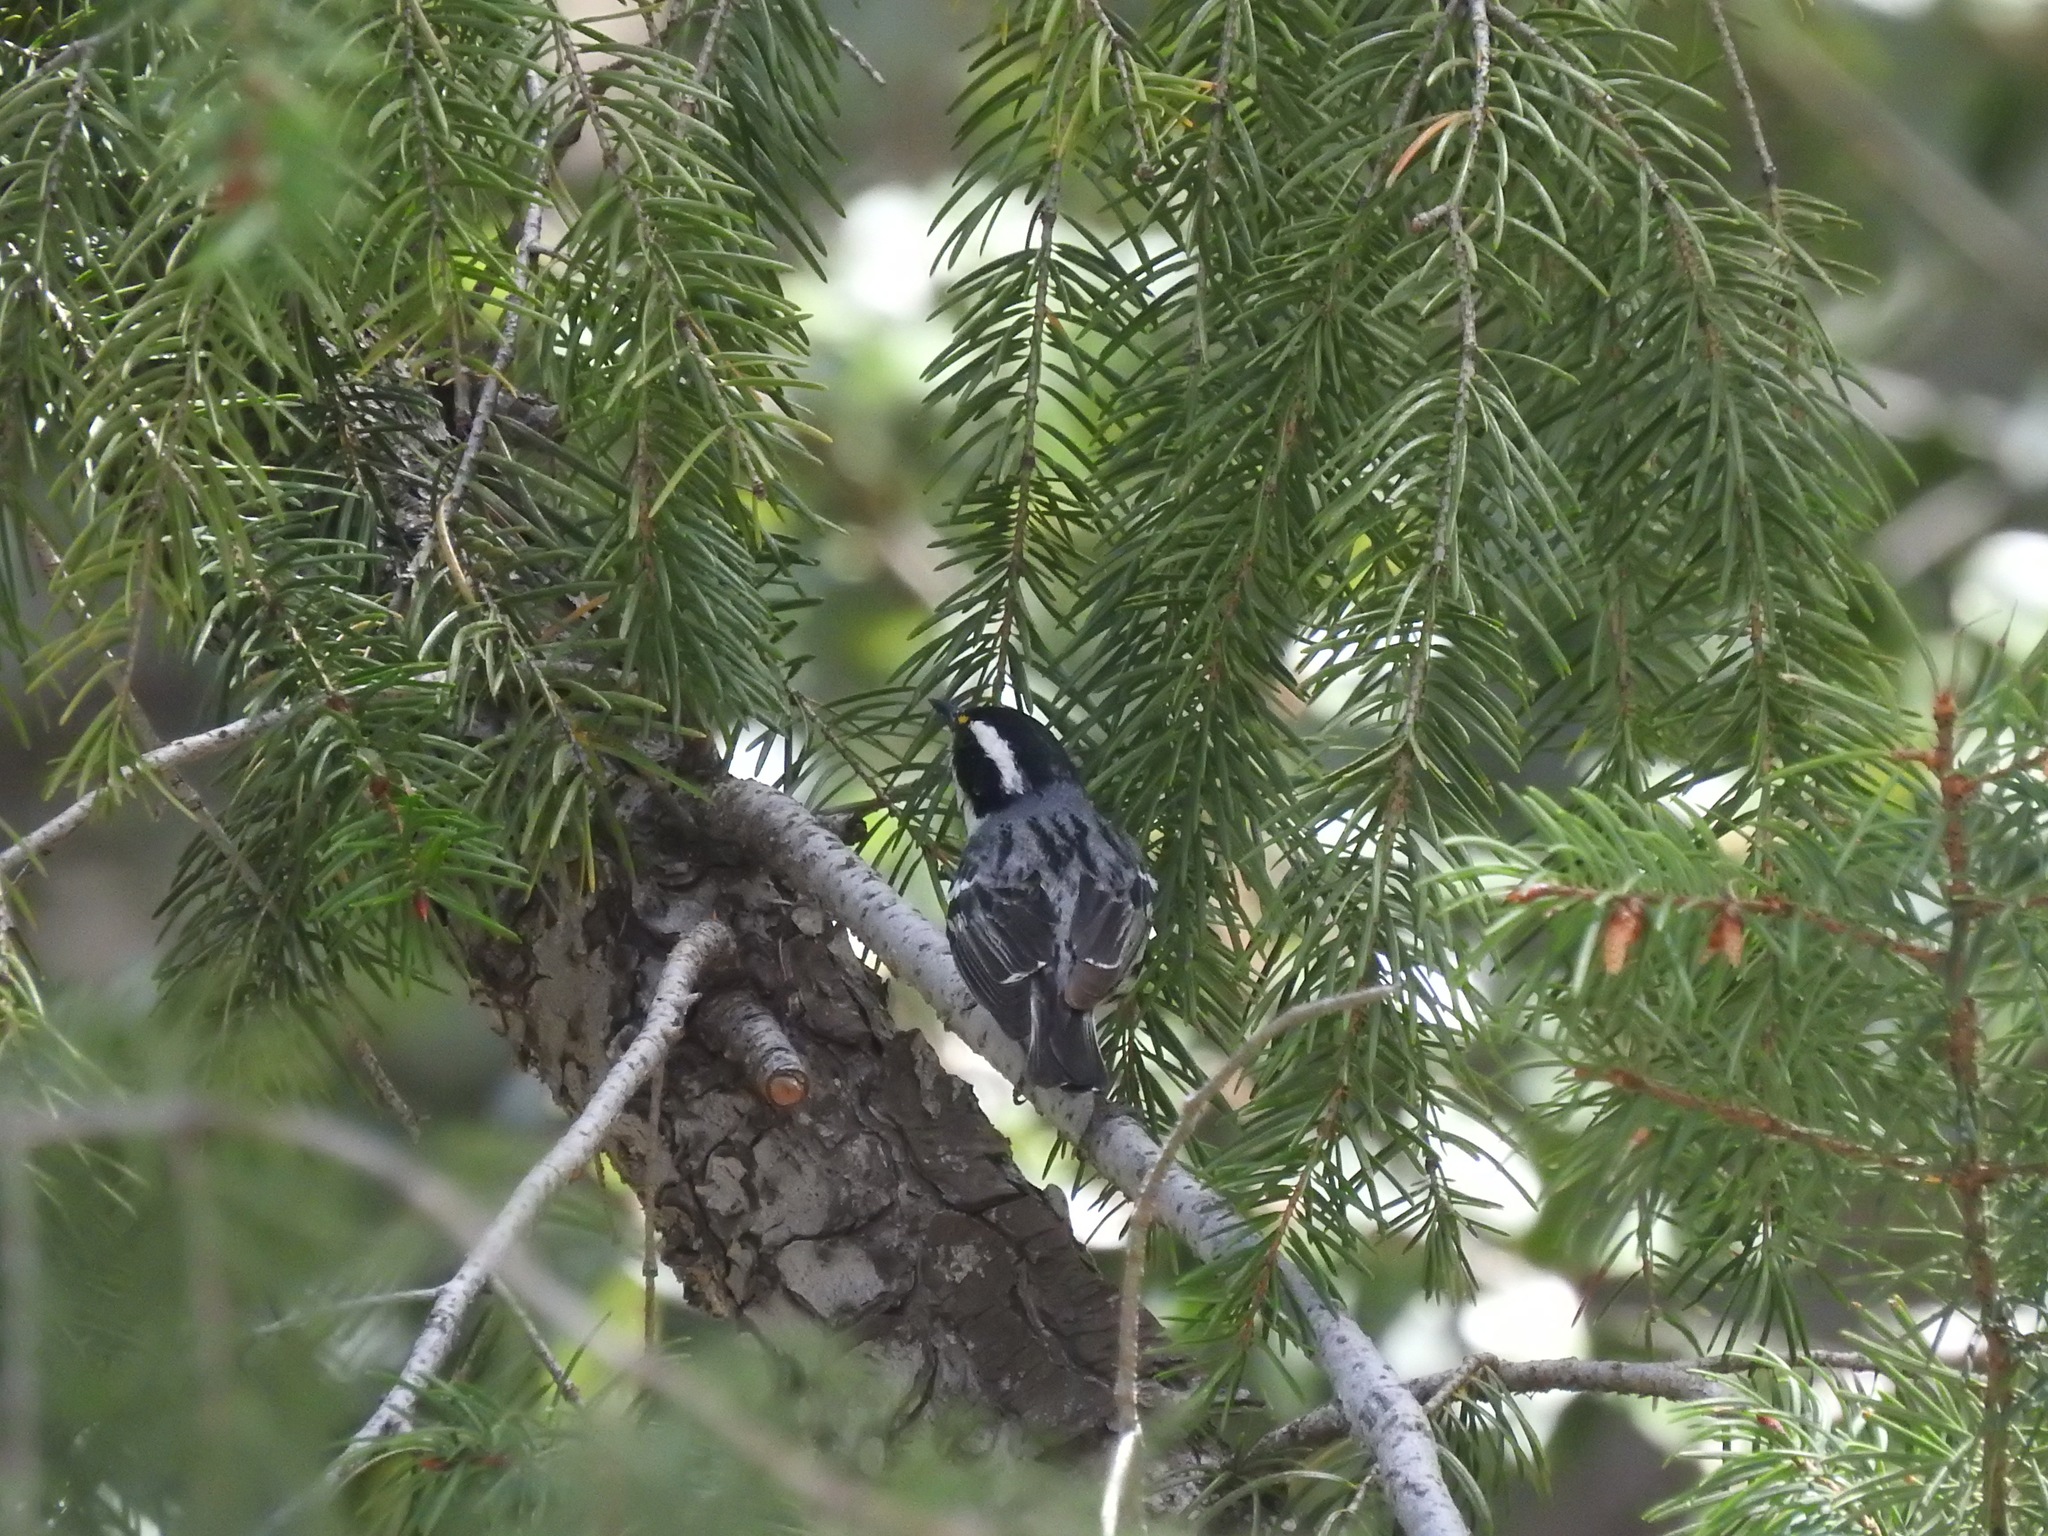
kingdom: Animalia
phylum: Chordata
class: Aves
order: Passeriformes
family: Parulidae
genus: Setophaga
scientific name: Setophaga nigrescens
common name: Black-throated gray warbler
